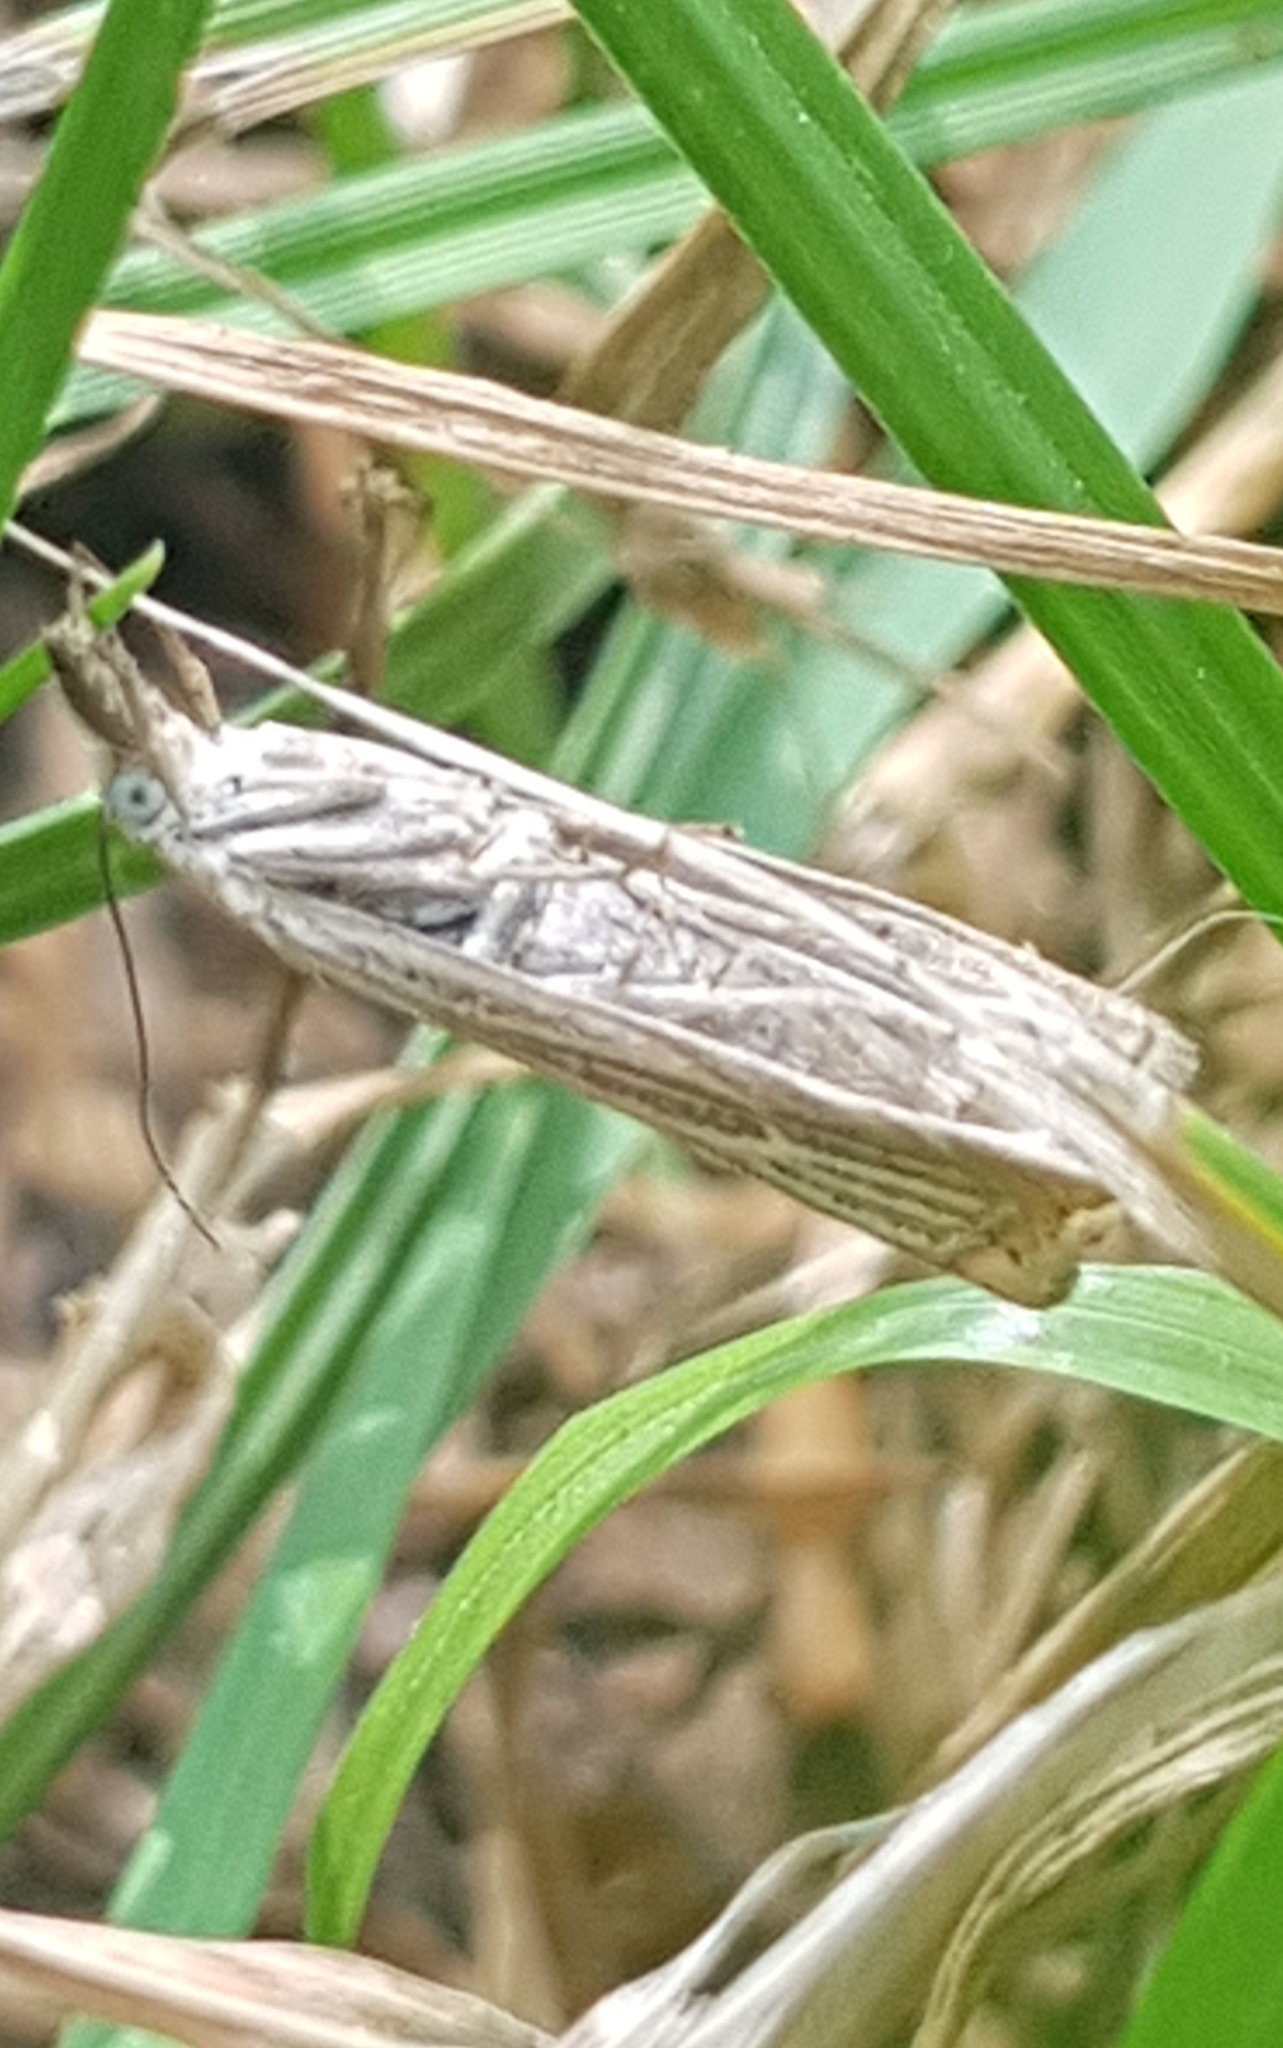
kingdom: Animalia
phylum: Arthropoda
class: Insecta
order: Lepidoptera
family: Crambidae
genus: Chrysoteuchia
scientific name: Chrysoteuchia culmella
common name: Garden grass-veneer
